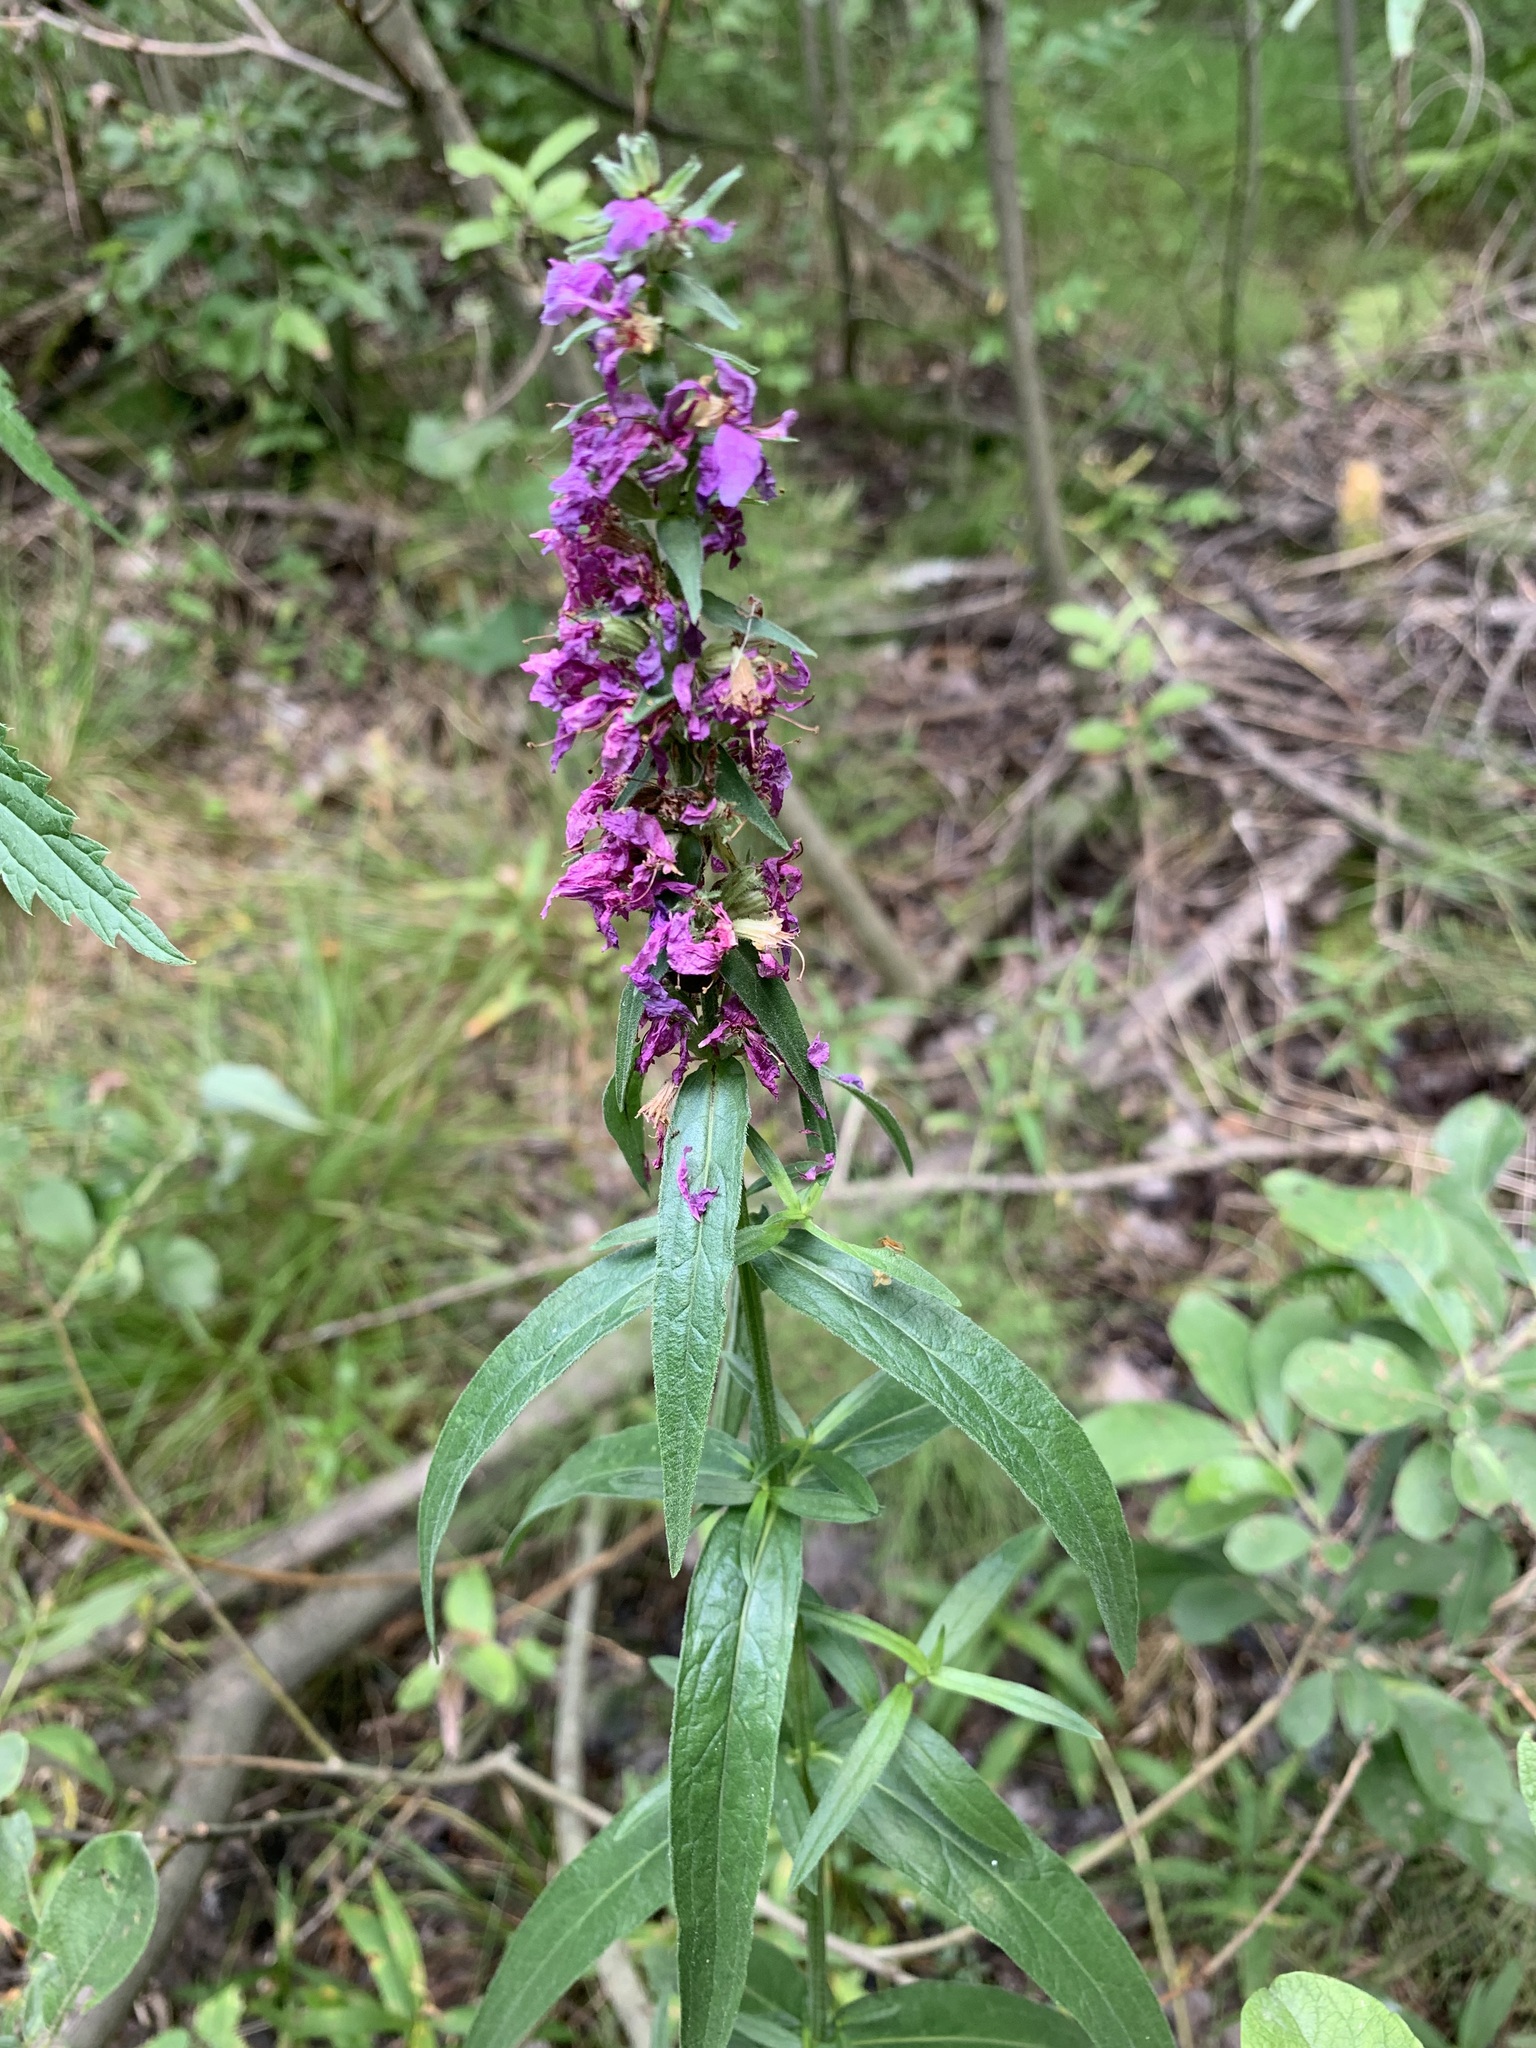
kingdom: Plantae
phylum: Tracheophyta
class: Magnoliopsida
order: Myrtales
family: Lythraceae
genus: Lythrum
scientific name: Lythrum salicaria
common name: Purple loosestrife
